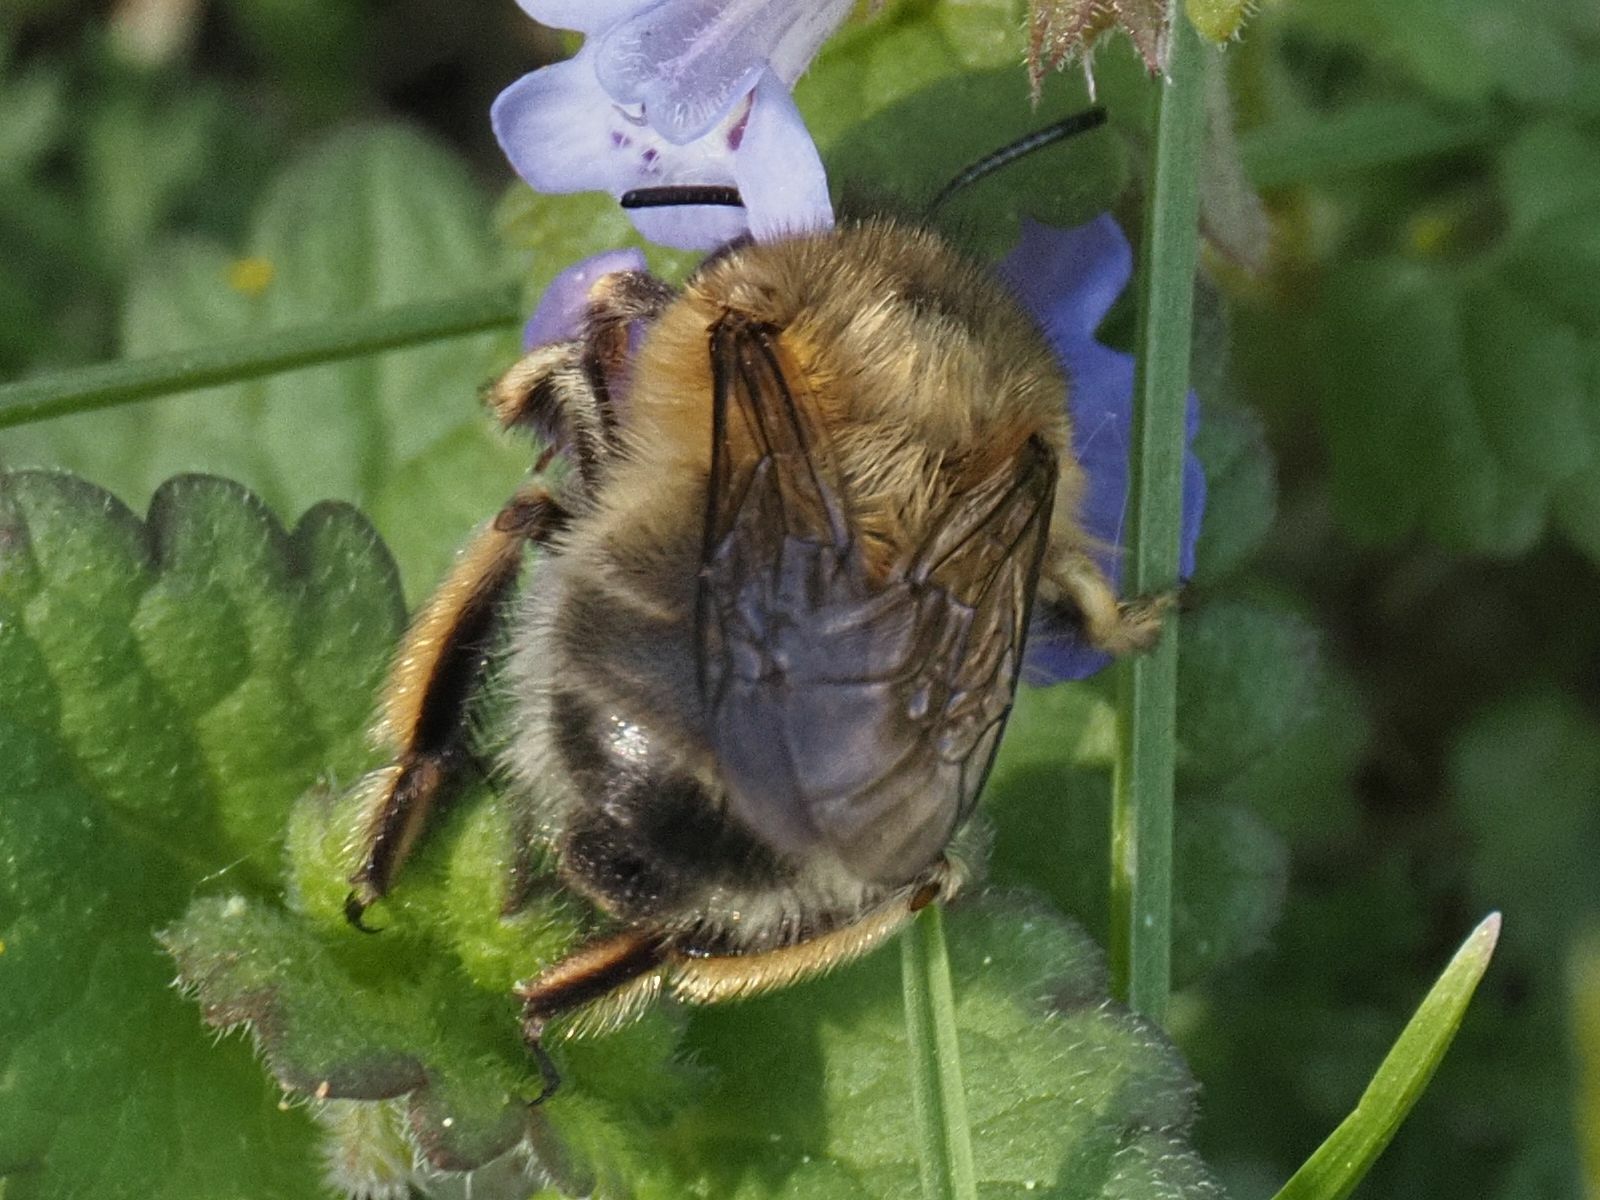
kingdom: Animalia
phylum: Arthropoda
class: Insecta
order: Hymenoptera
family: Apidae
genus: Anthophora
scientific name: Anthophora plumipes
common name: Hairy-footed flower bee
